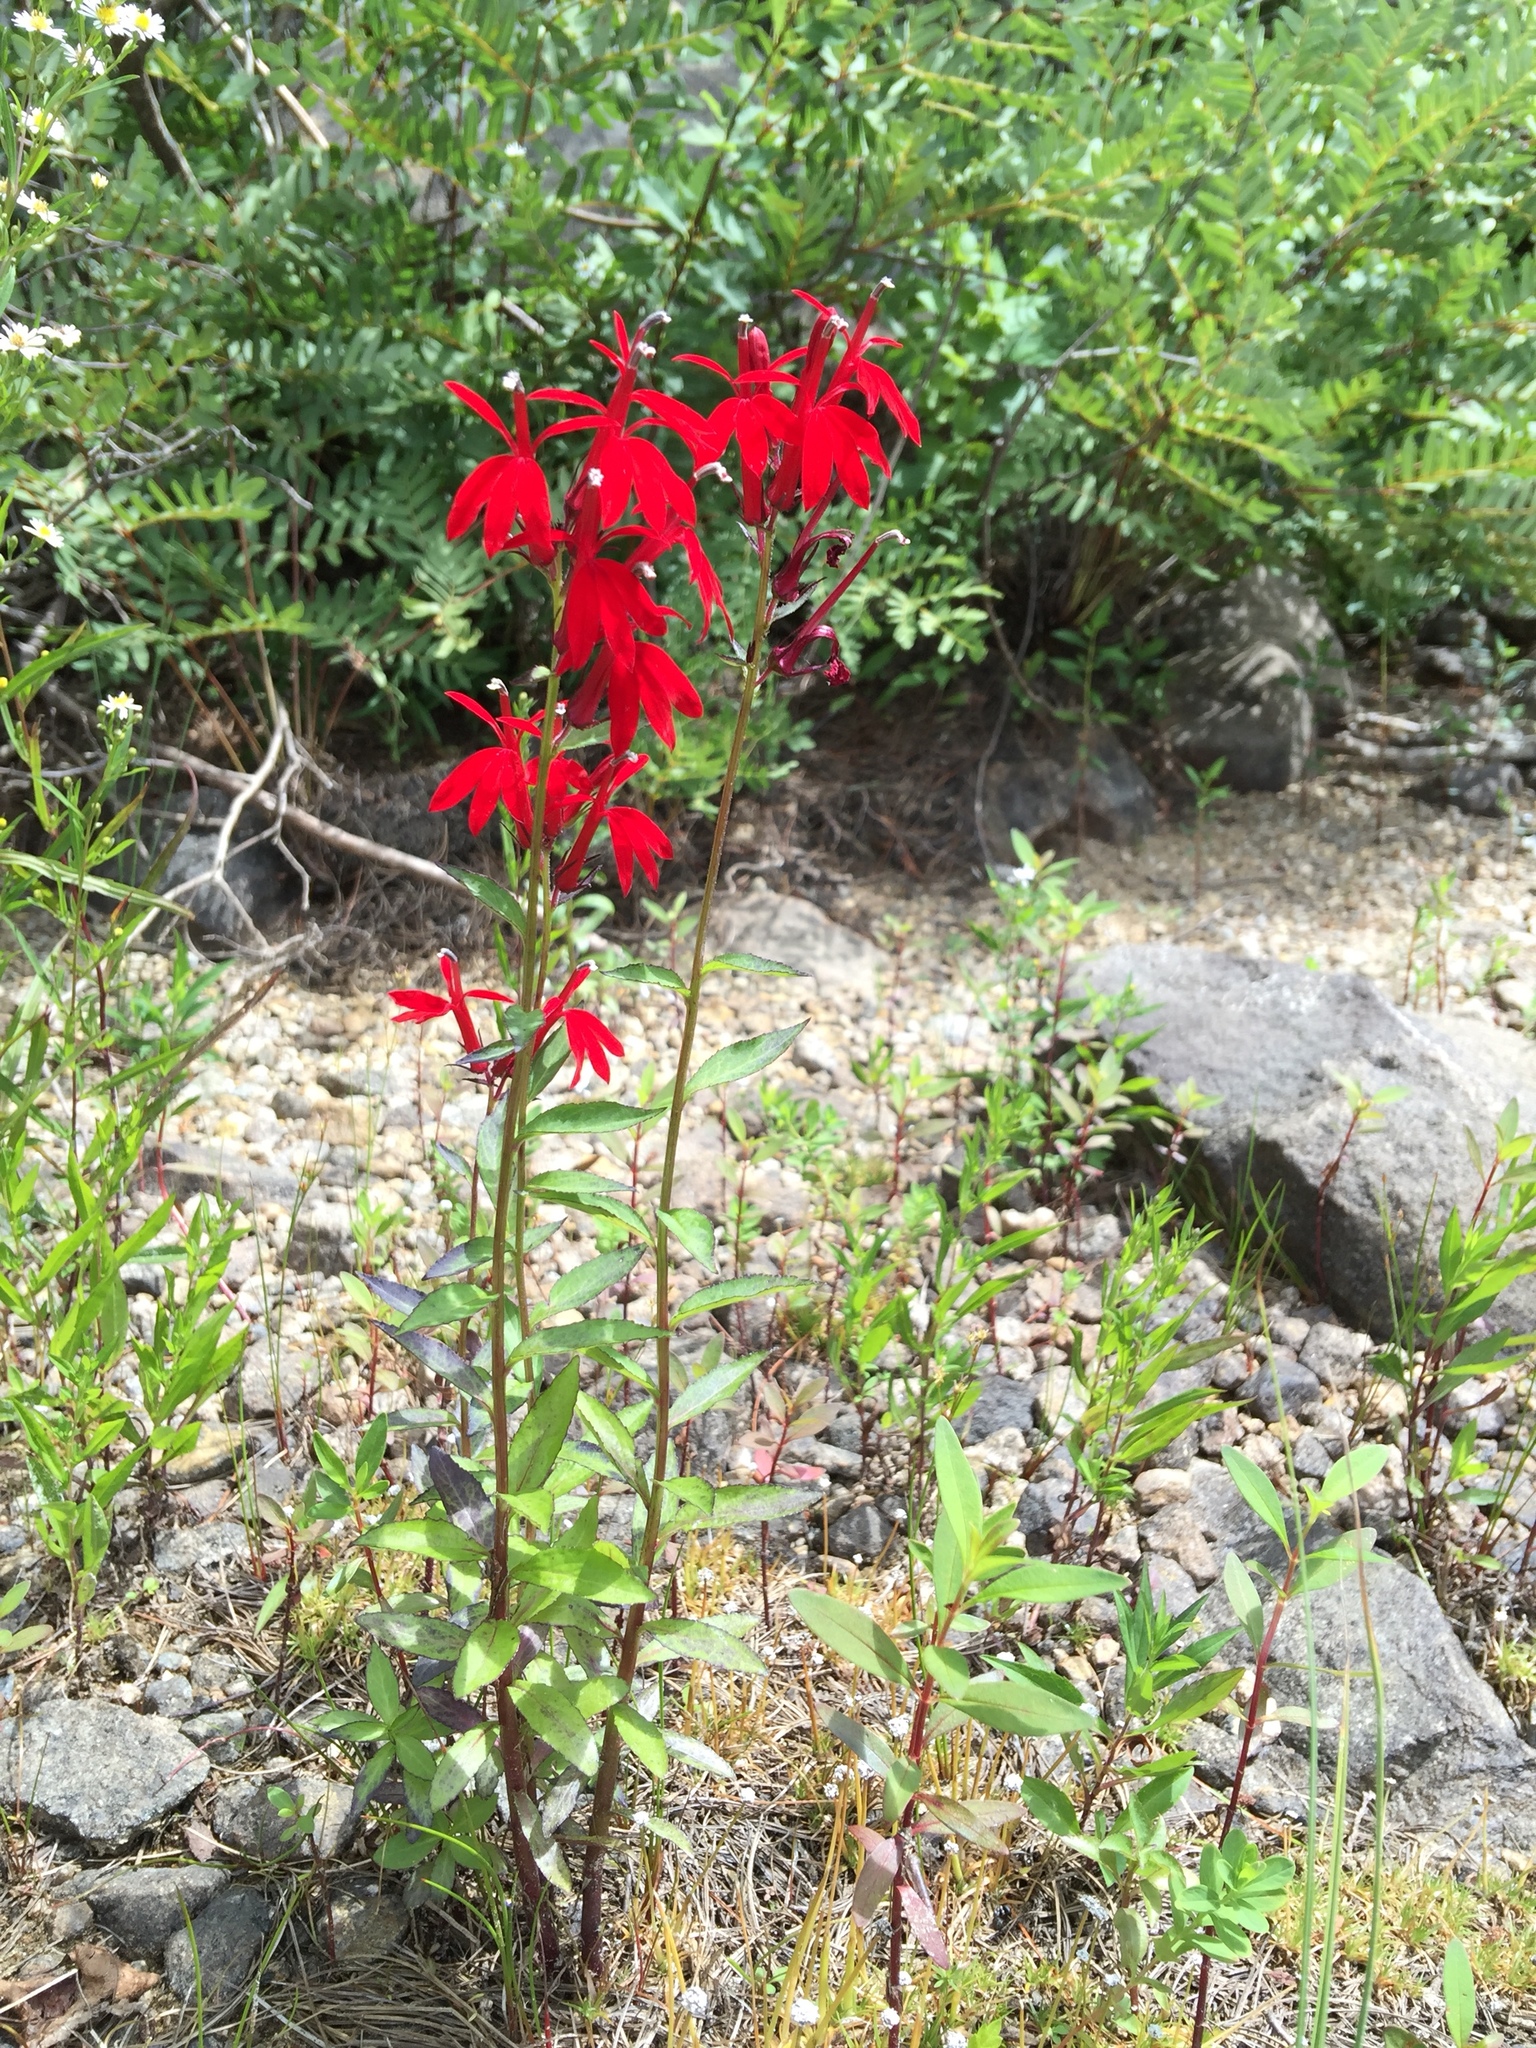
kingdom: Plantae
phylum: Tracheophyta
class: Magnoliopsida
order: Asterales
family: Campanulaceae
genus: Lobelia
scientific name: Lobelia cardinalis
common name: Cardinal flower
